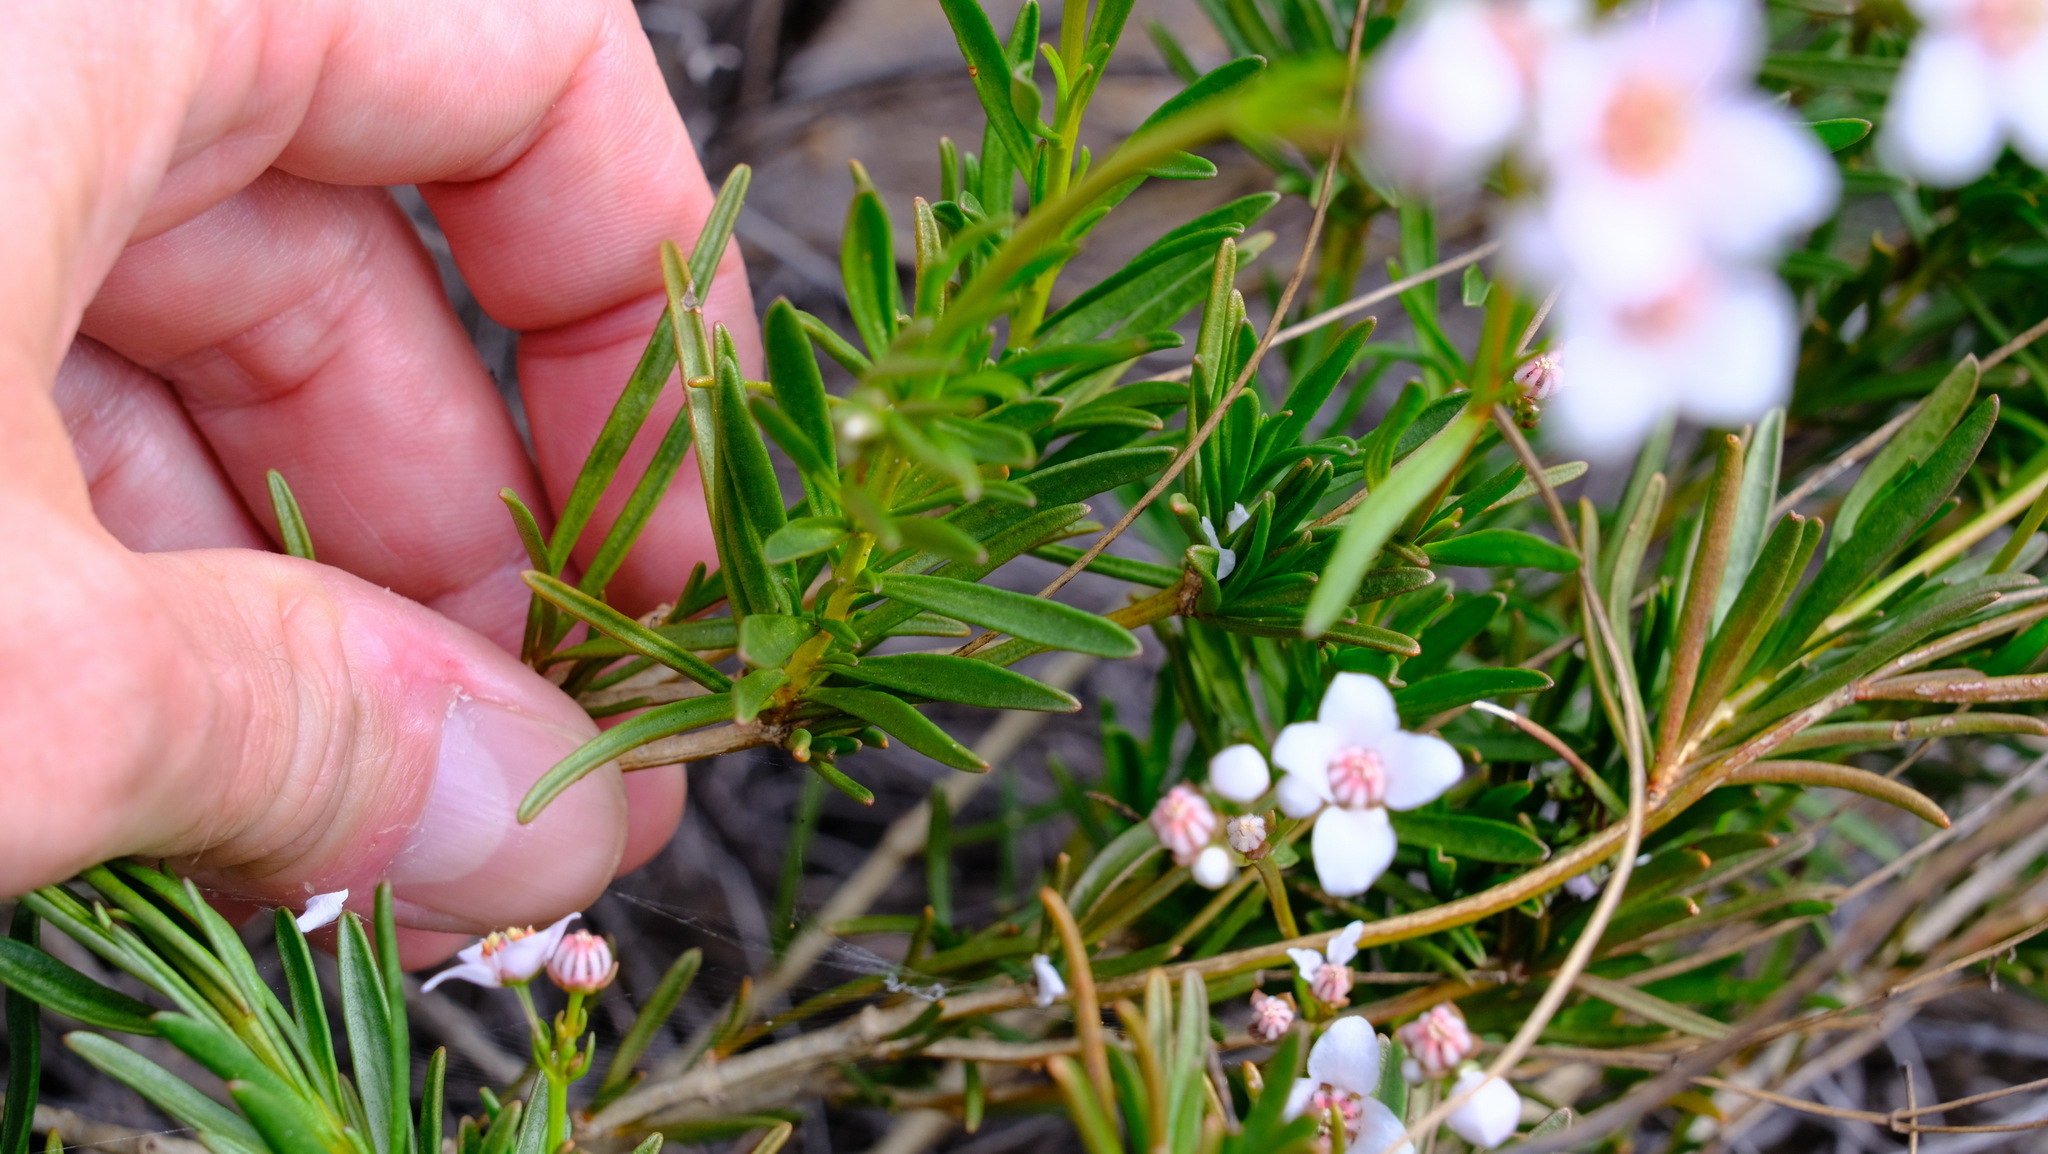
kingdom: Plantae
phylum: Tracheophyta
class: Magnoliopsida
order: Sapindales
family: Rutaceae
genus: Boronia
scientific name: Boronia cymosa
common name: Granite boronia
